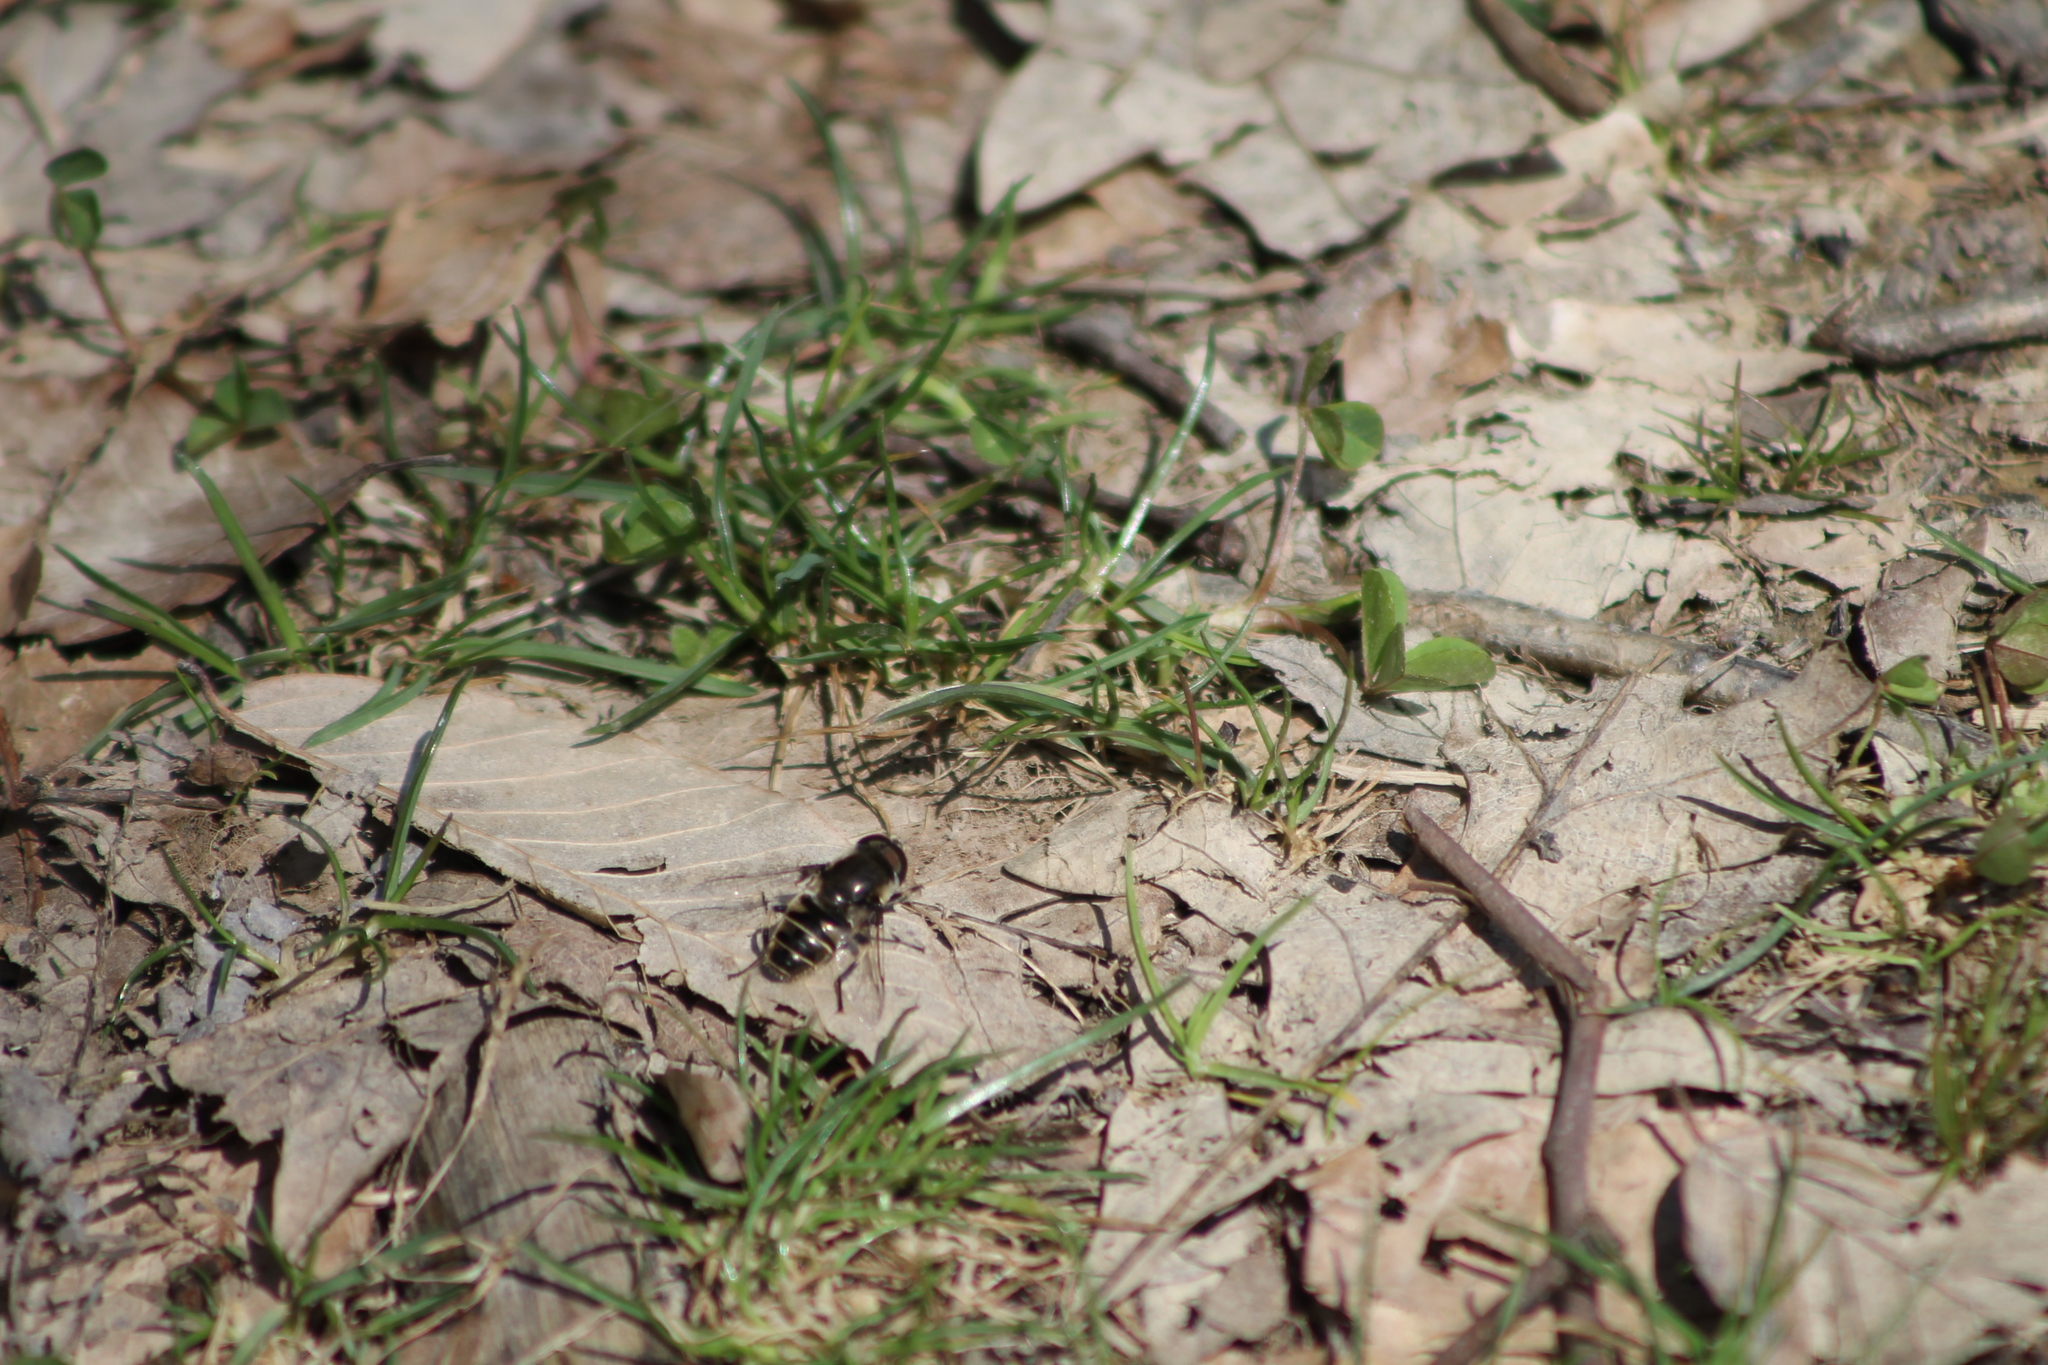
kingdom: Animalia
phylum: Arthropoda
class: Insecta
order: Diptera
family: Syrphidae
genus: Eristalis
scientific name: Eristalis dimidiata
